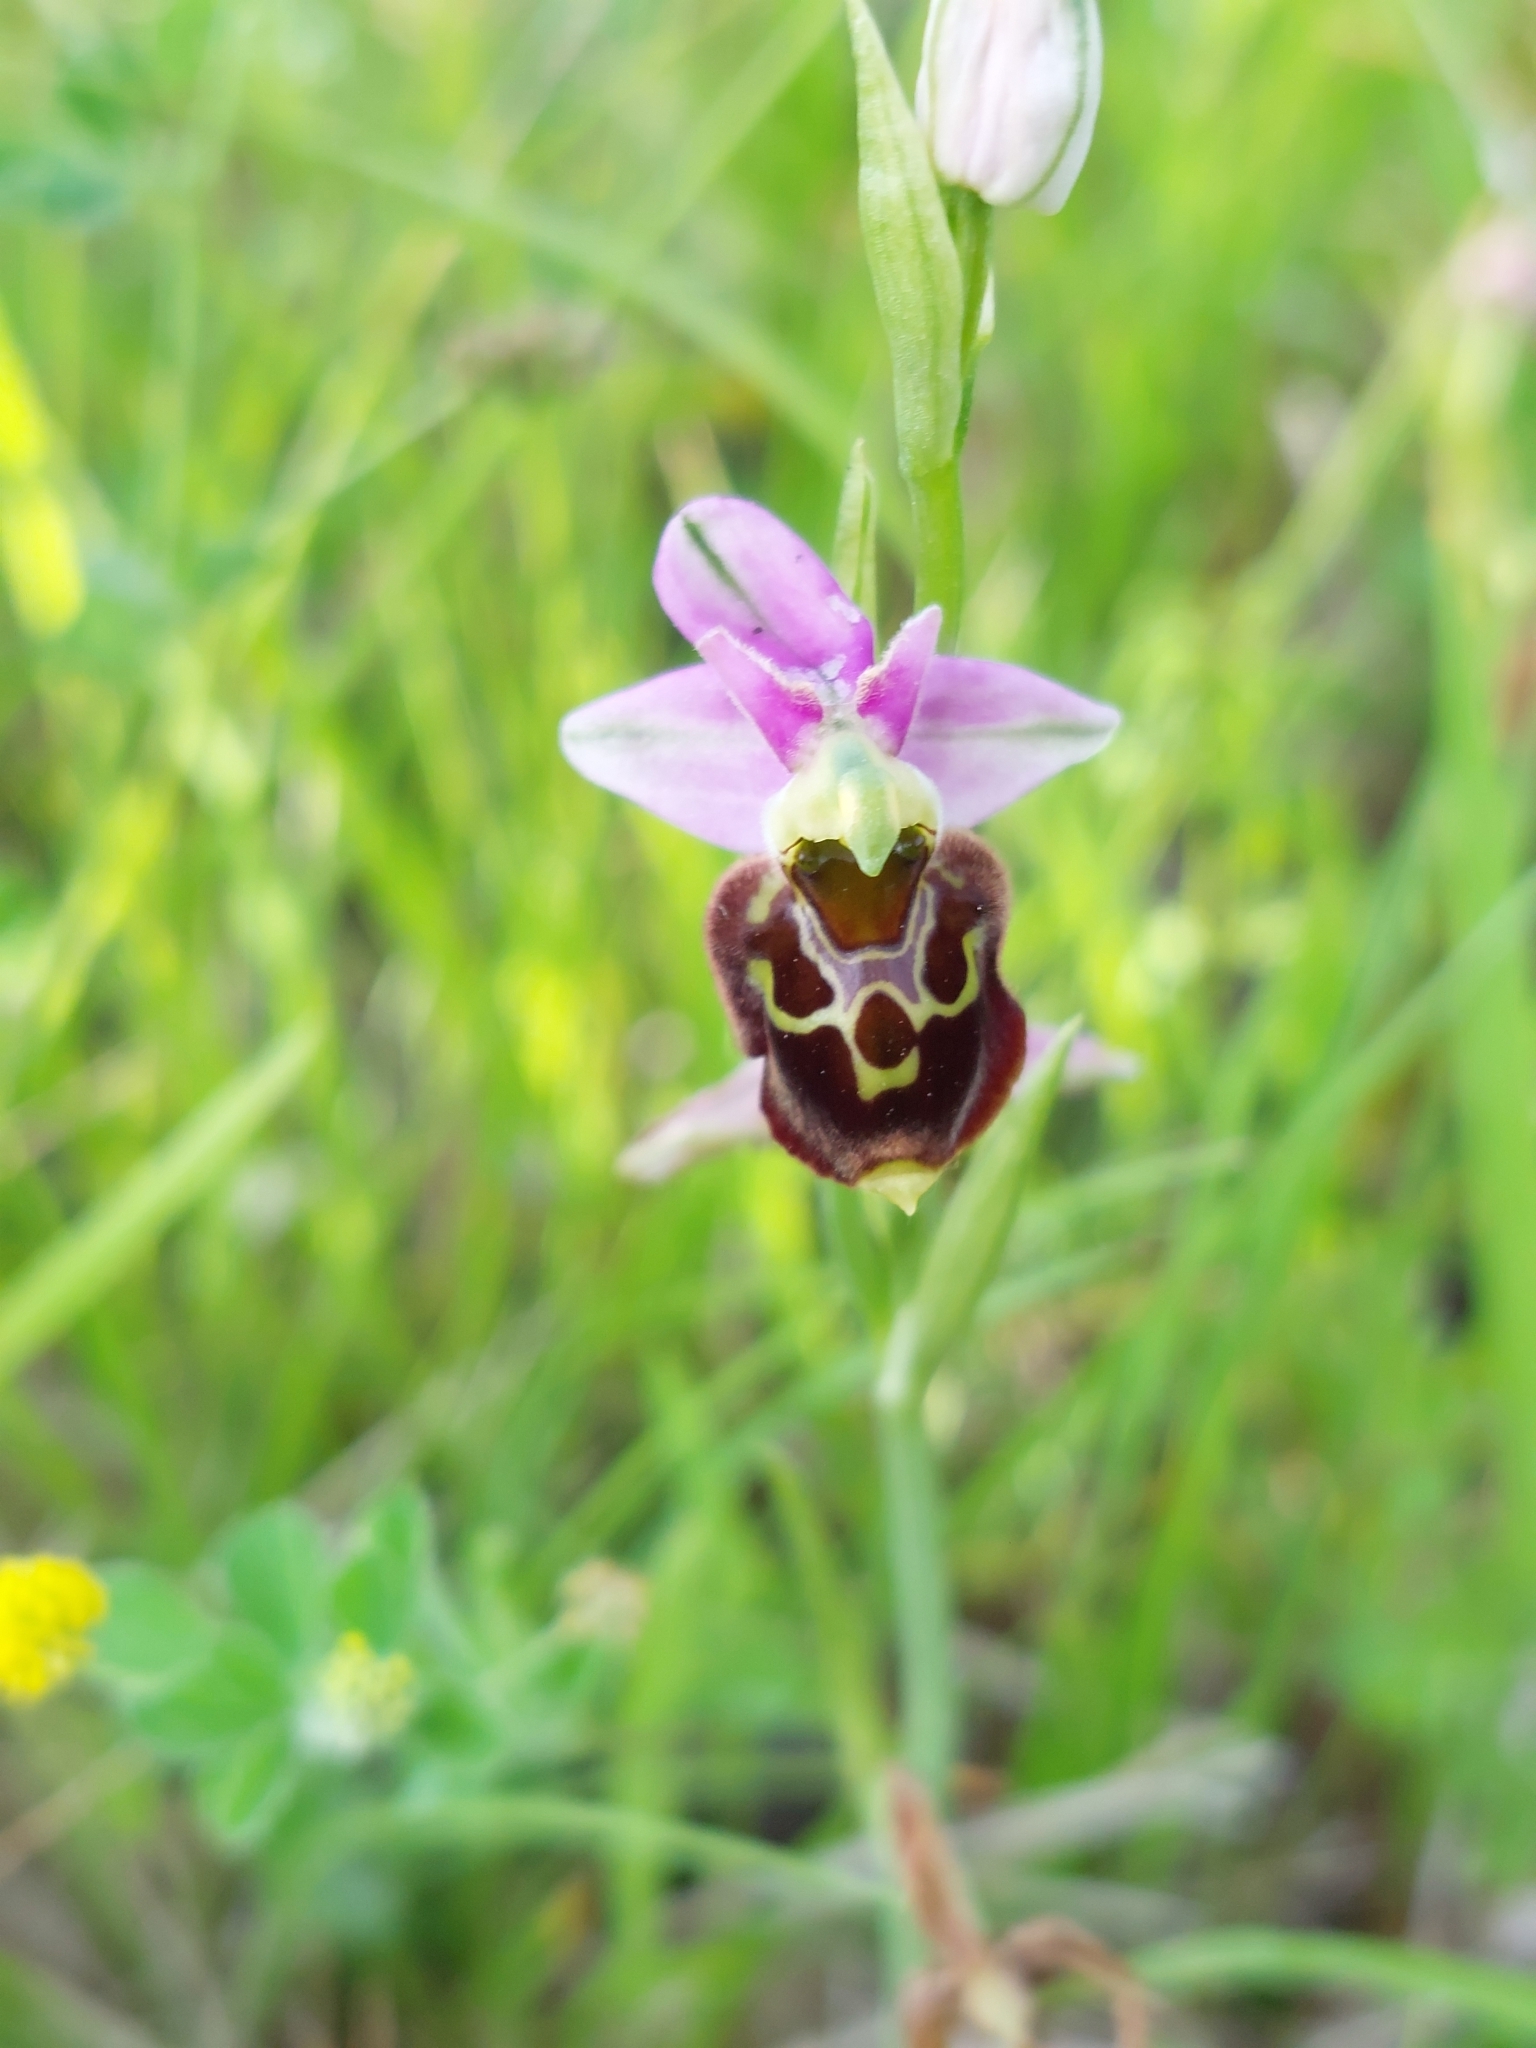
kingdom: Plantae
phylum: Tracheophyta
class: Liliopsida
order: Asparagales
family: Orchidaceae
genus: Ophrys
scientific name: Ophrys holosericea
